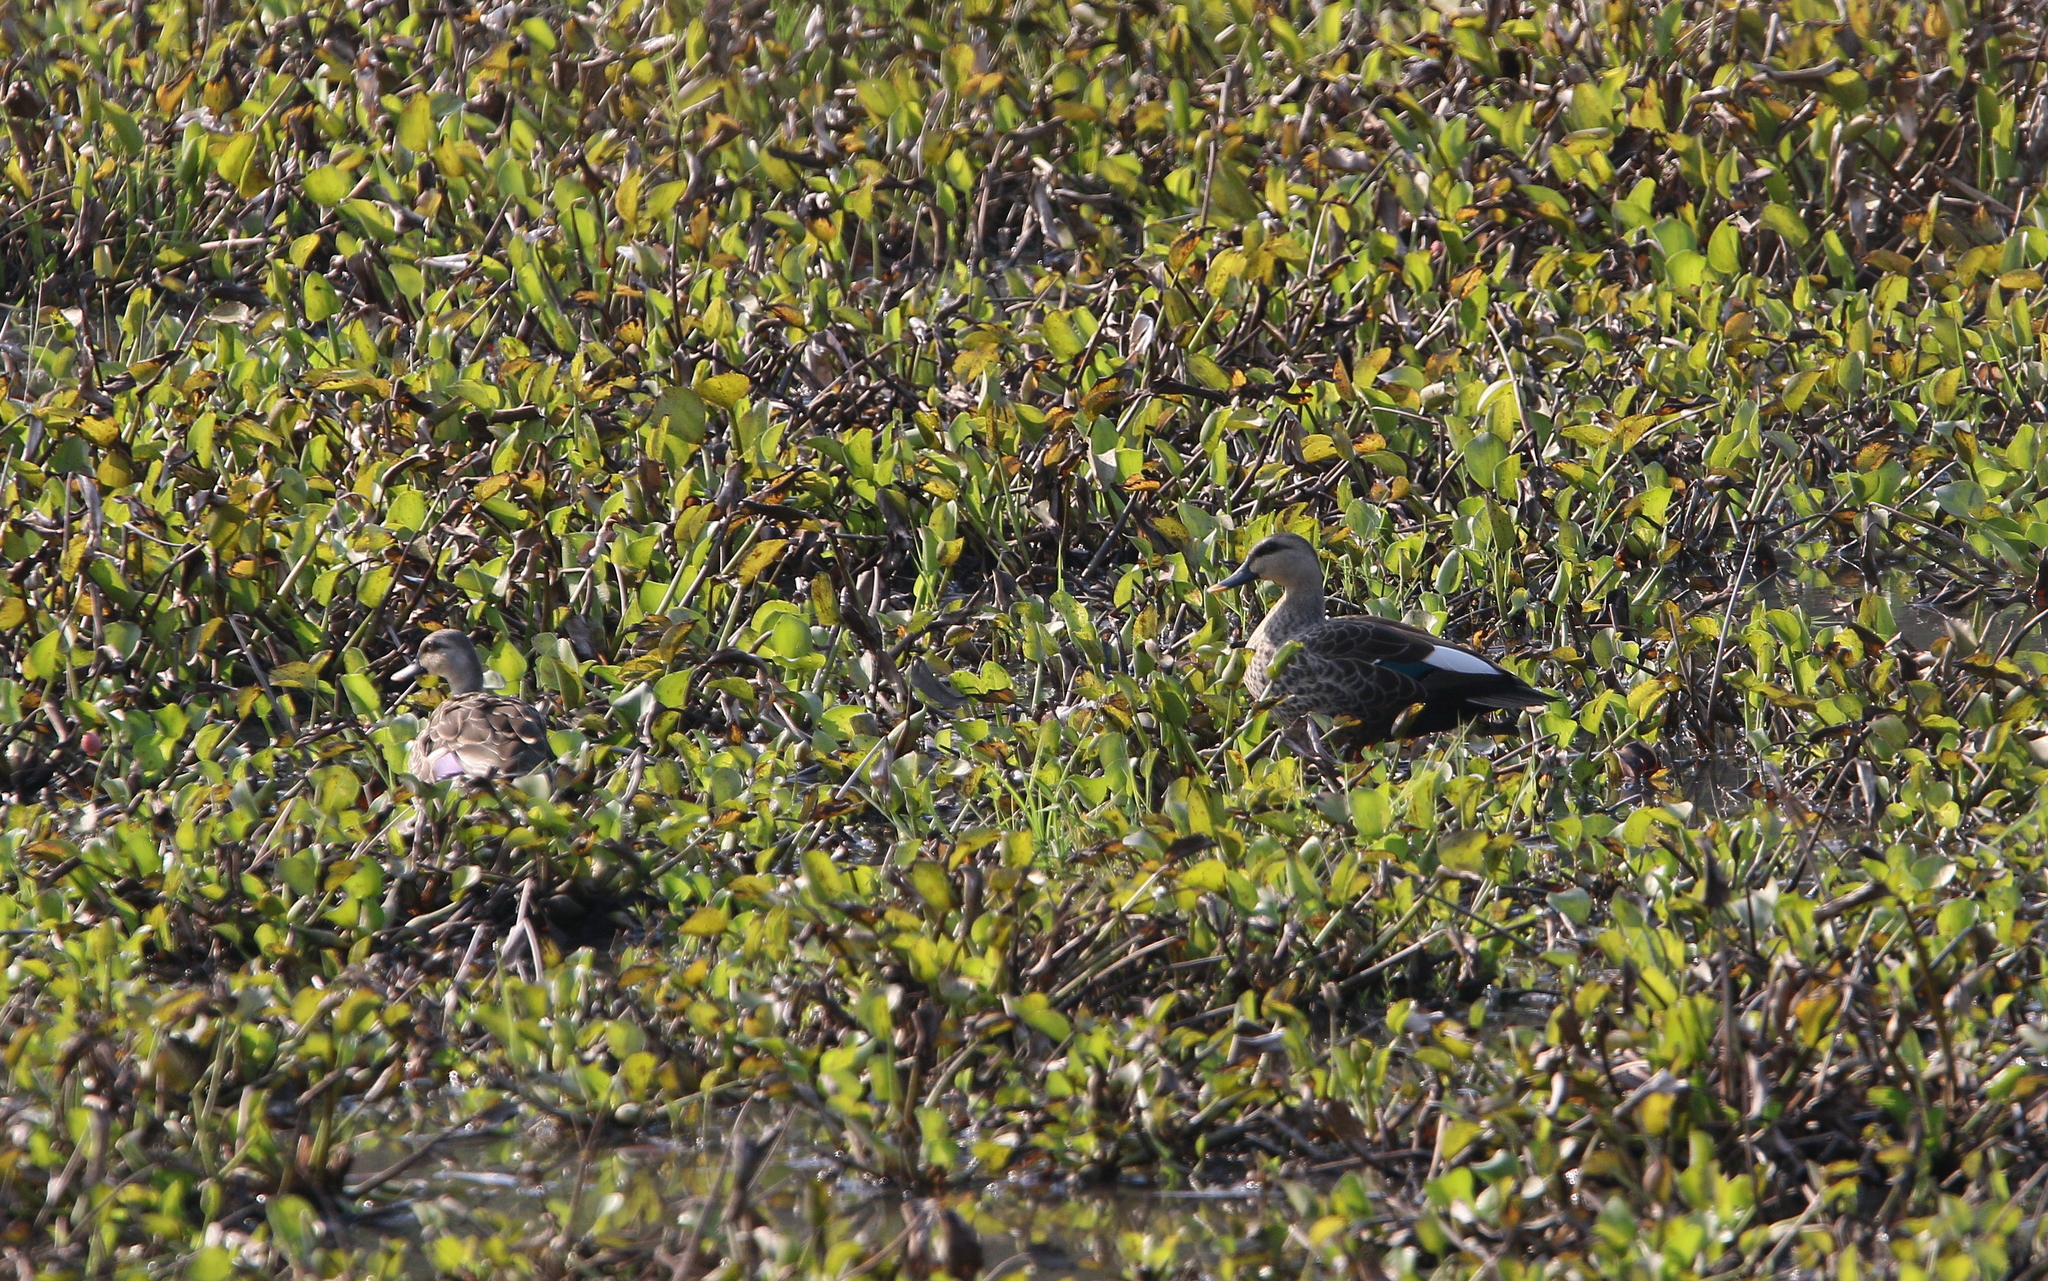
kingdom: Animalia
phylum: Chordata
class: Aves
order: Anseriformes
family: Anatidae
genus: Anas
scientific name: Anas poecilorhyncha
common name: Indian spot-billed duck
